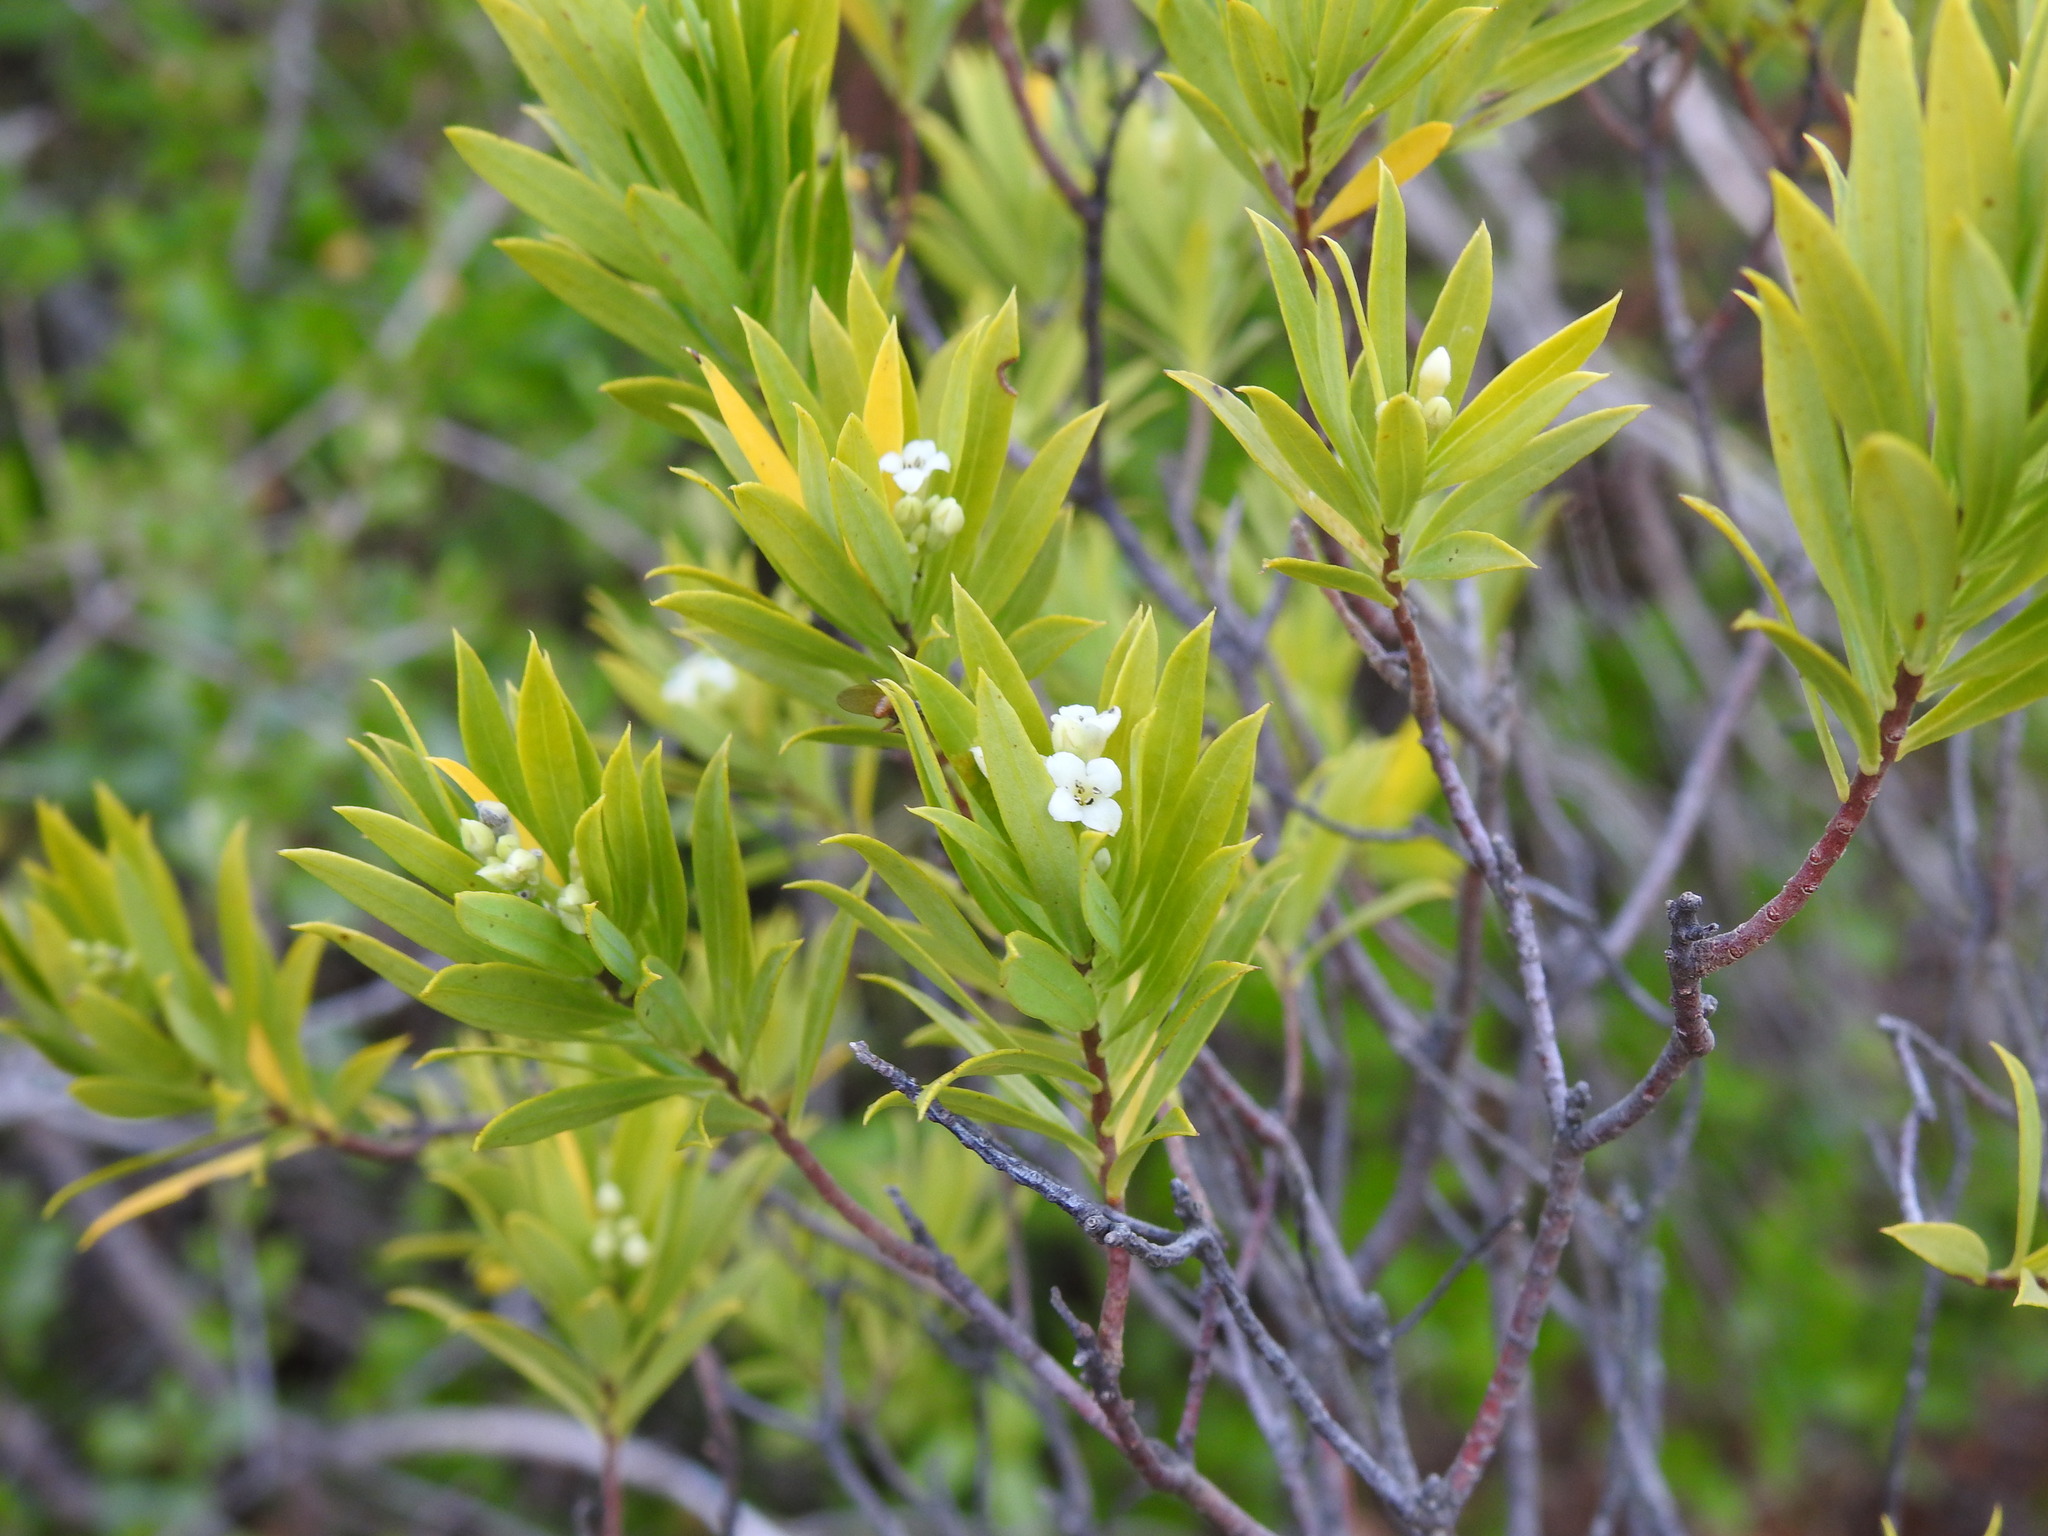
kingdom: Plantae
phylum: Tracheophyta
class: Magnoliopsida
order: Malvales
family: Thymelaeaceae
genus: Daphne
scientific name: Daphne gnidium
